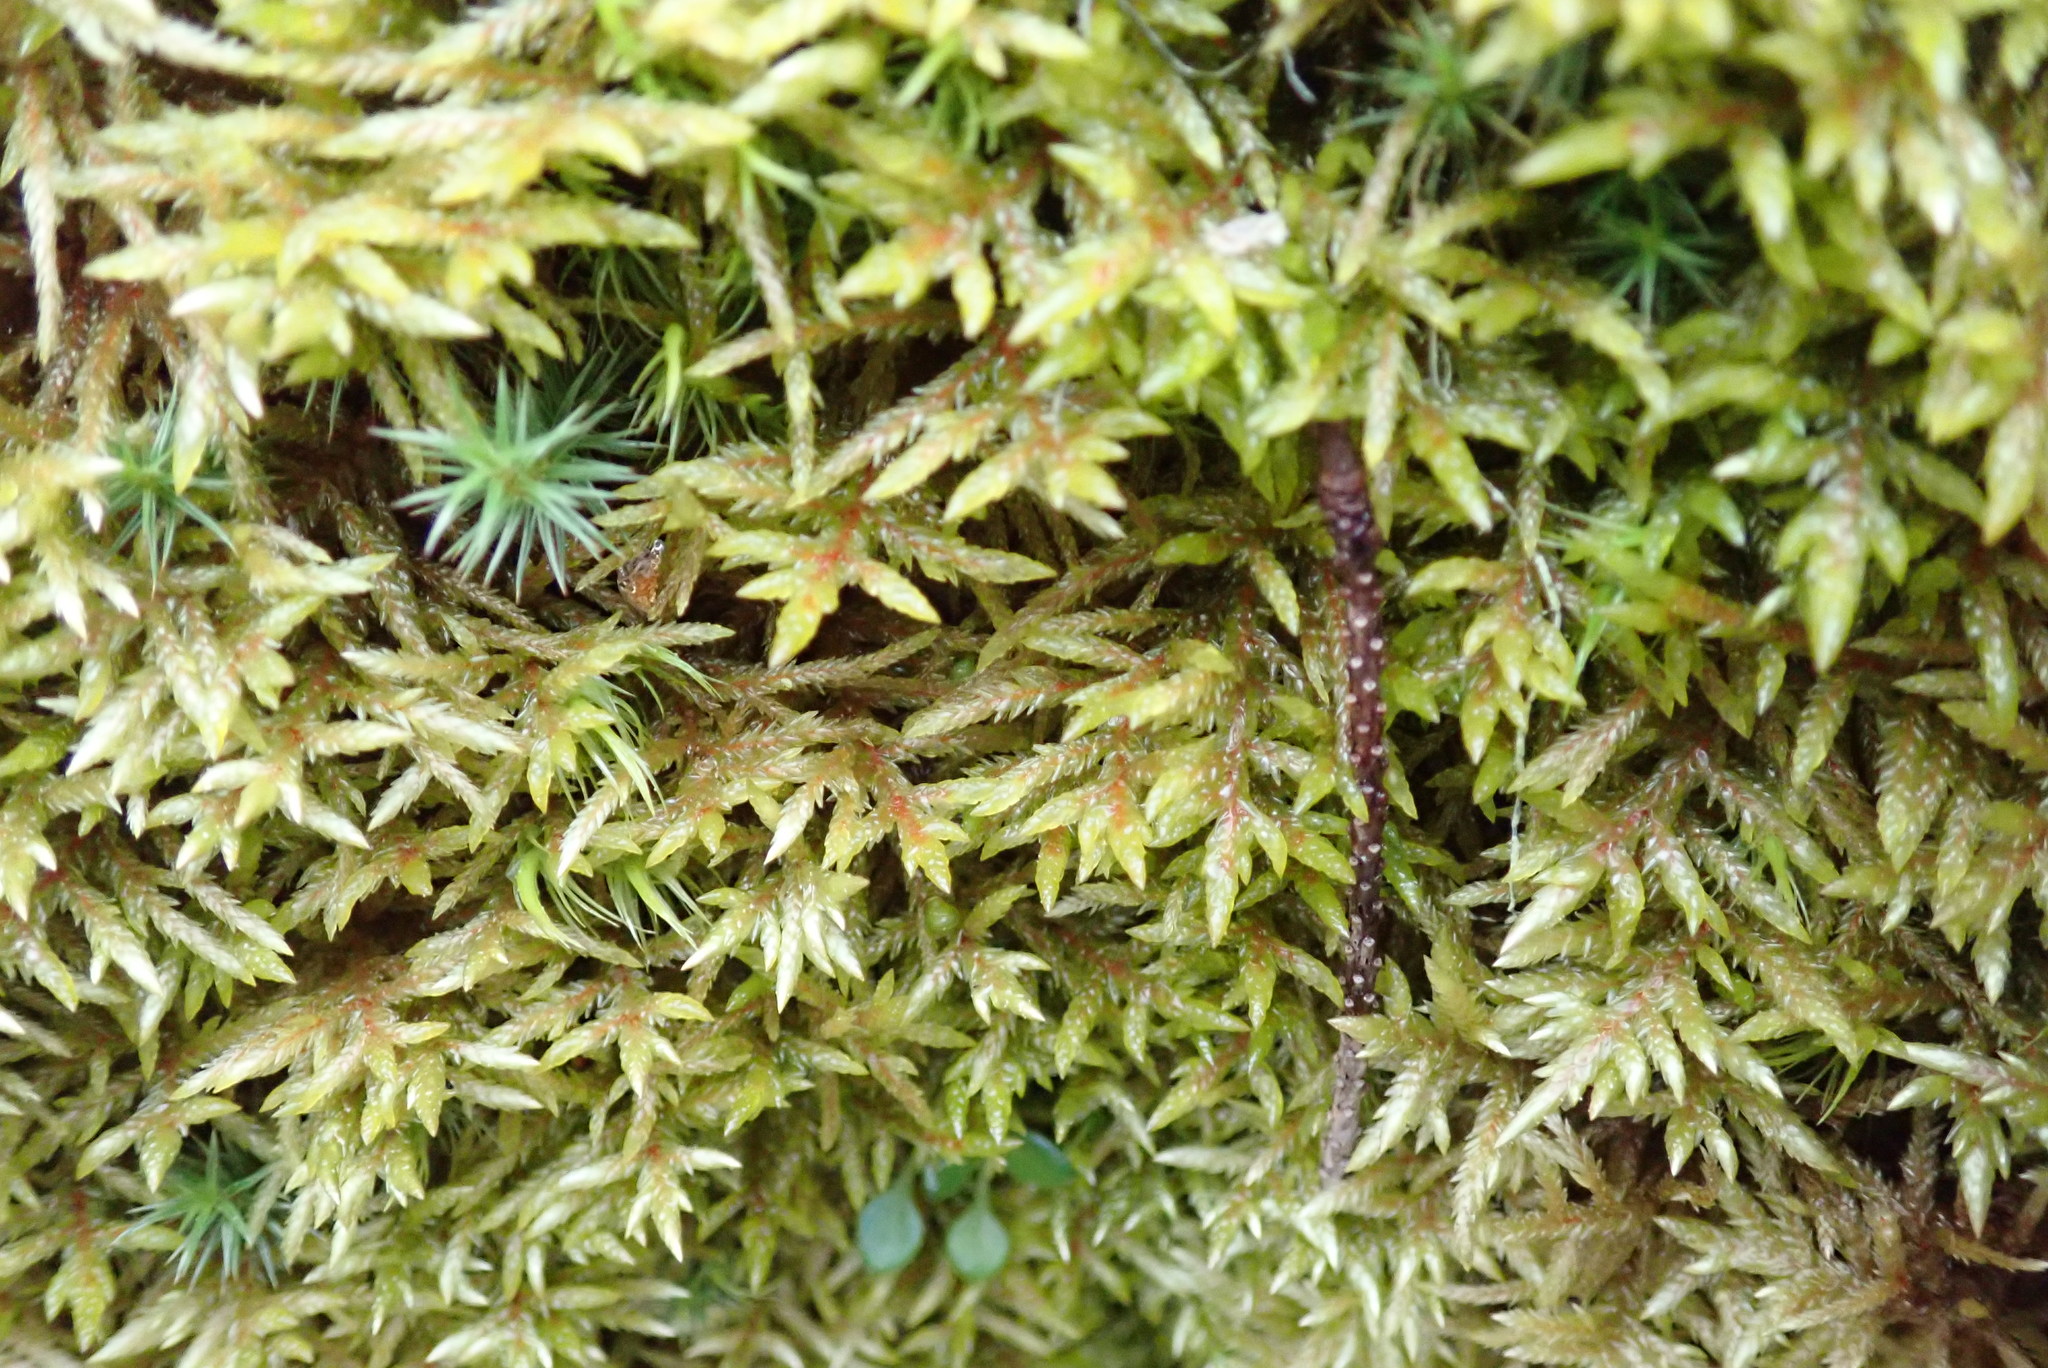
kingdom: Plantae
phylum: Bryophyta
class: Bryopsida
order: Hypnales
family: Hylocomiaceae
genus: Pleurozium
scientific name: Pleurozium schreberi
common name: Red-stemmed feather moss
